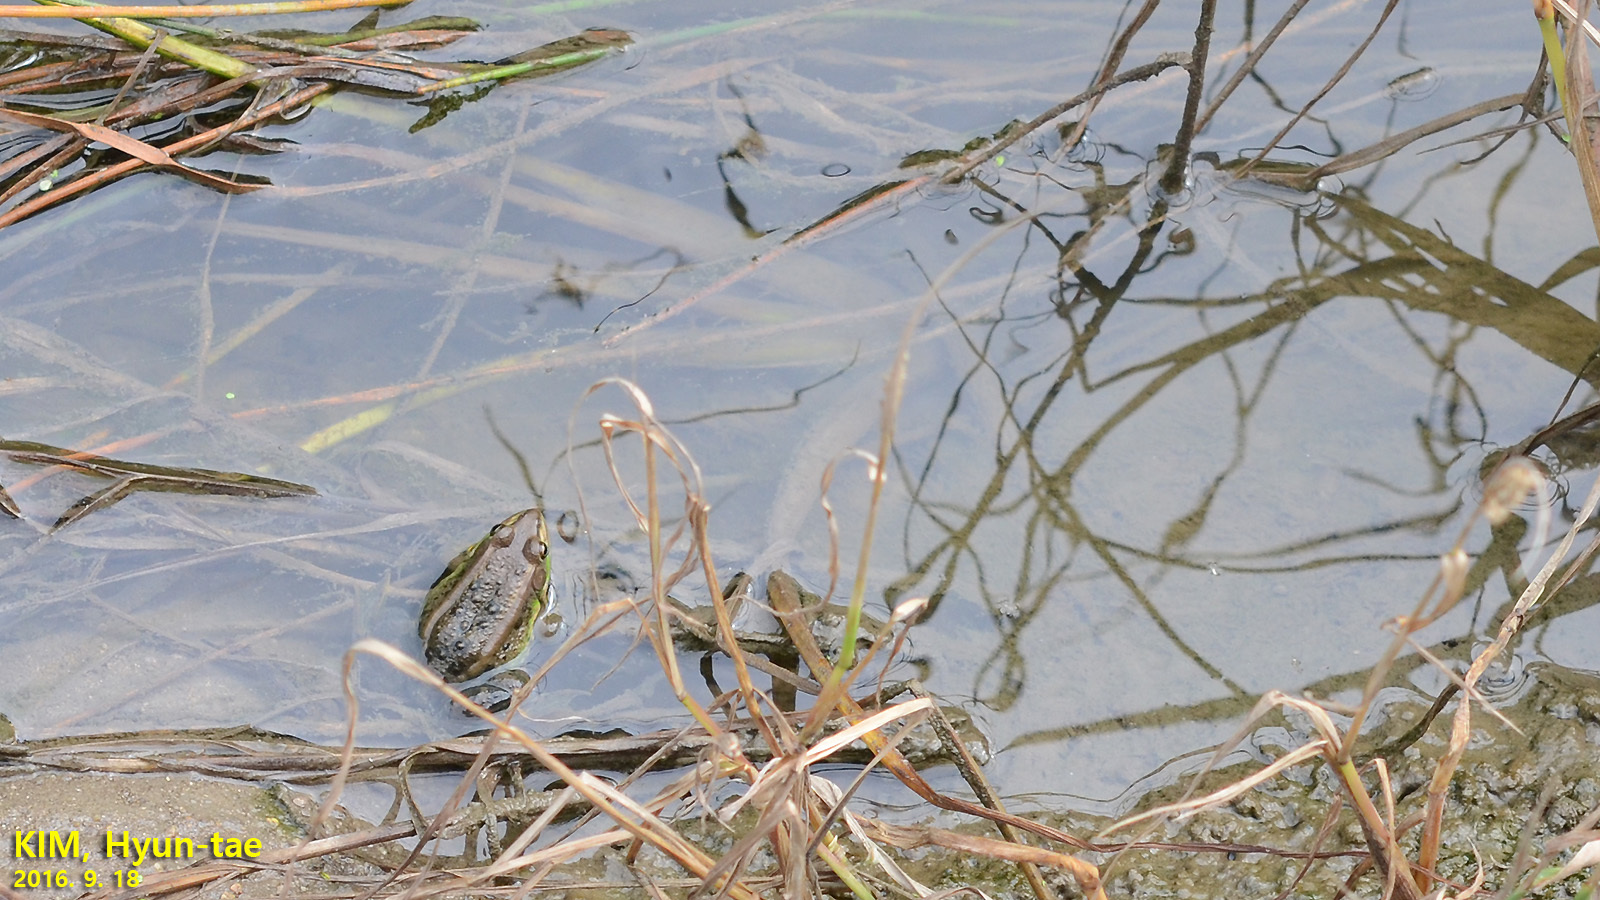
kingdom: Animalia
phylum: Chordata
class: Amphibia
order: Anura
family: Ranidae
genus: Pelophylax
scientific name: Pelophylax chosenicus
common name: Gold-spotted pond frog
